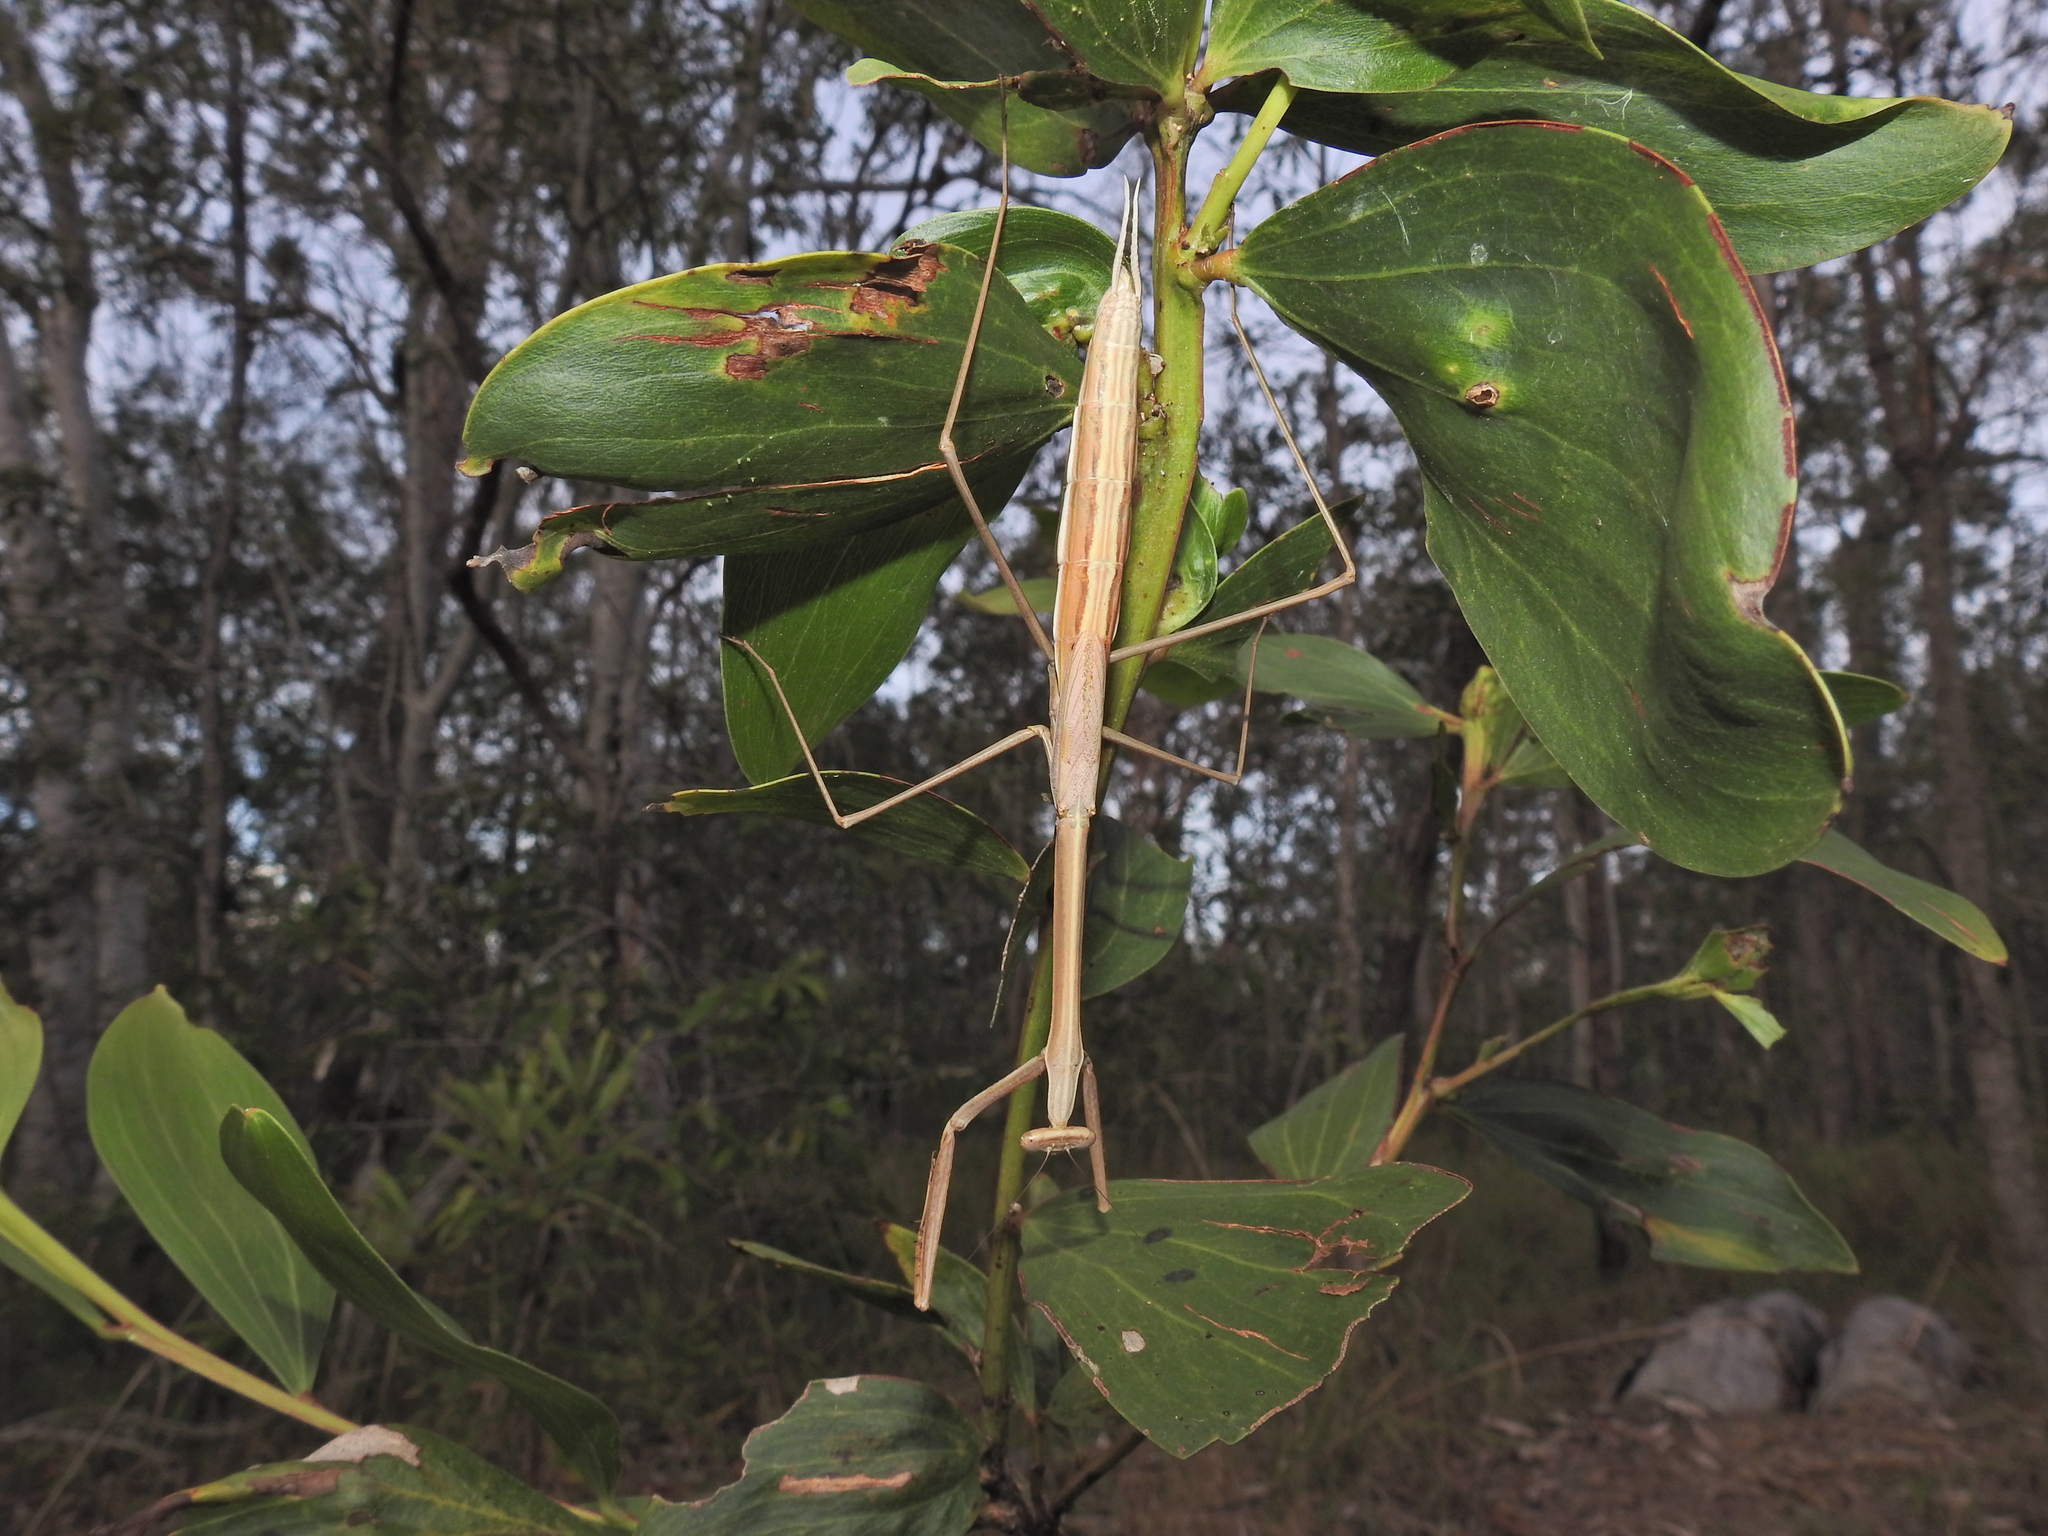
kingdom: Animalia
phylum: Arthropoda
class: Insecta
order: Mantodea
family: Mantidae
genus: Archimantis
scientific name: Archimantis brunneriana
